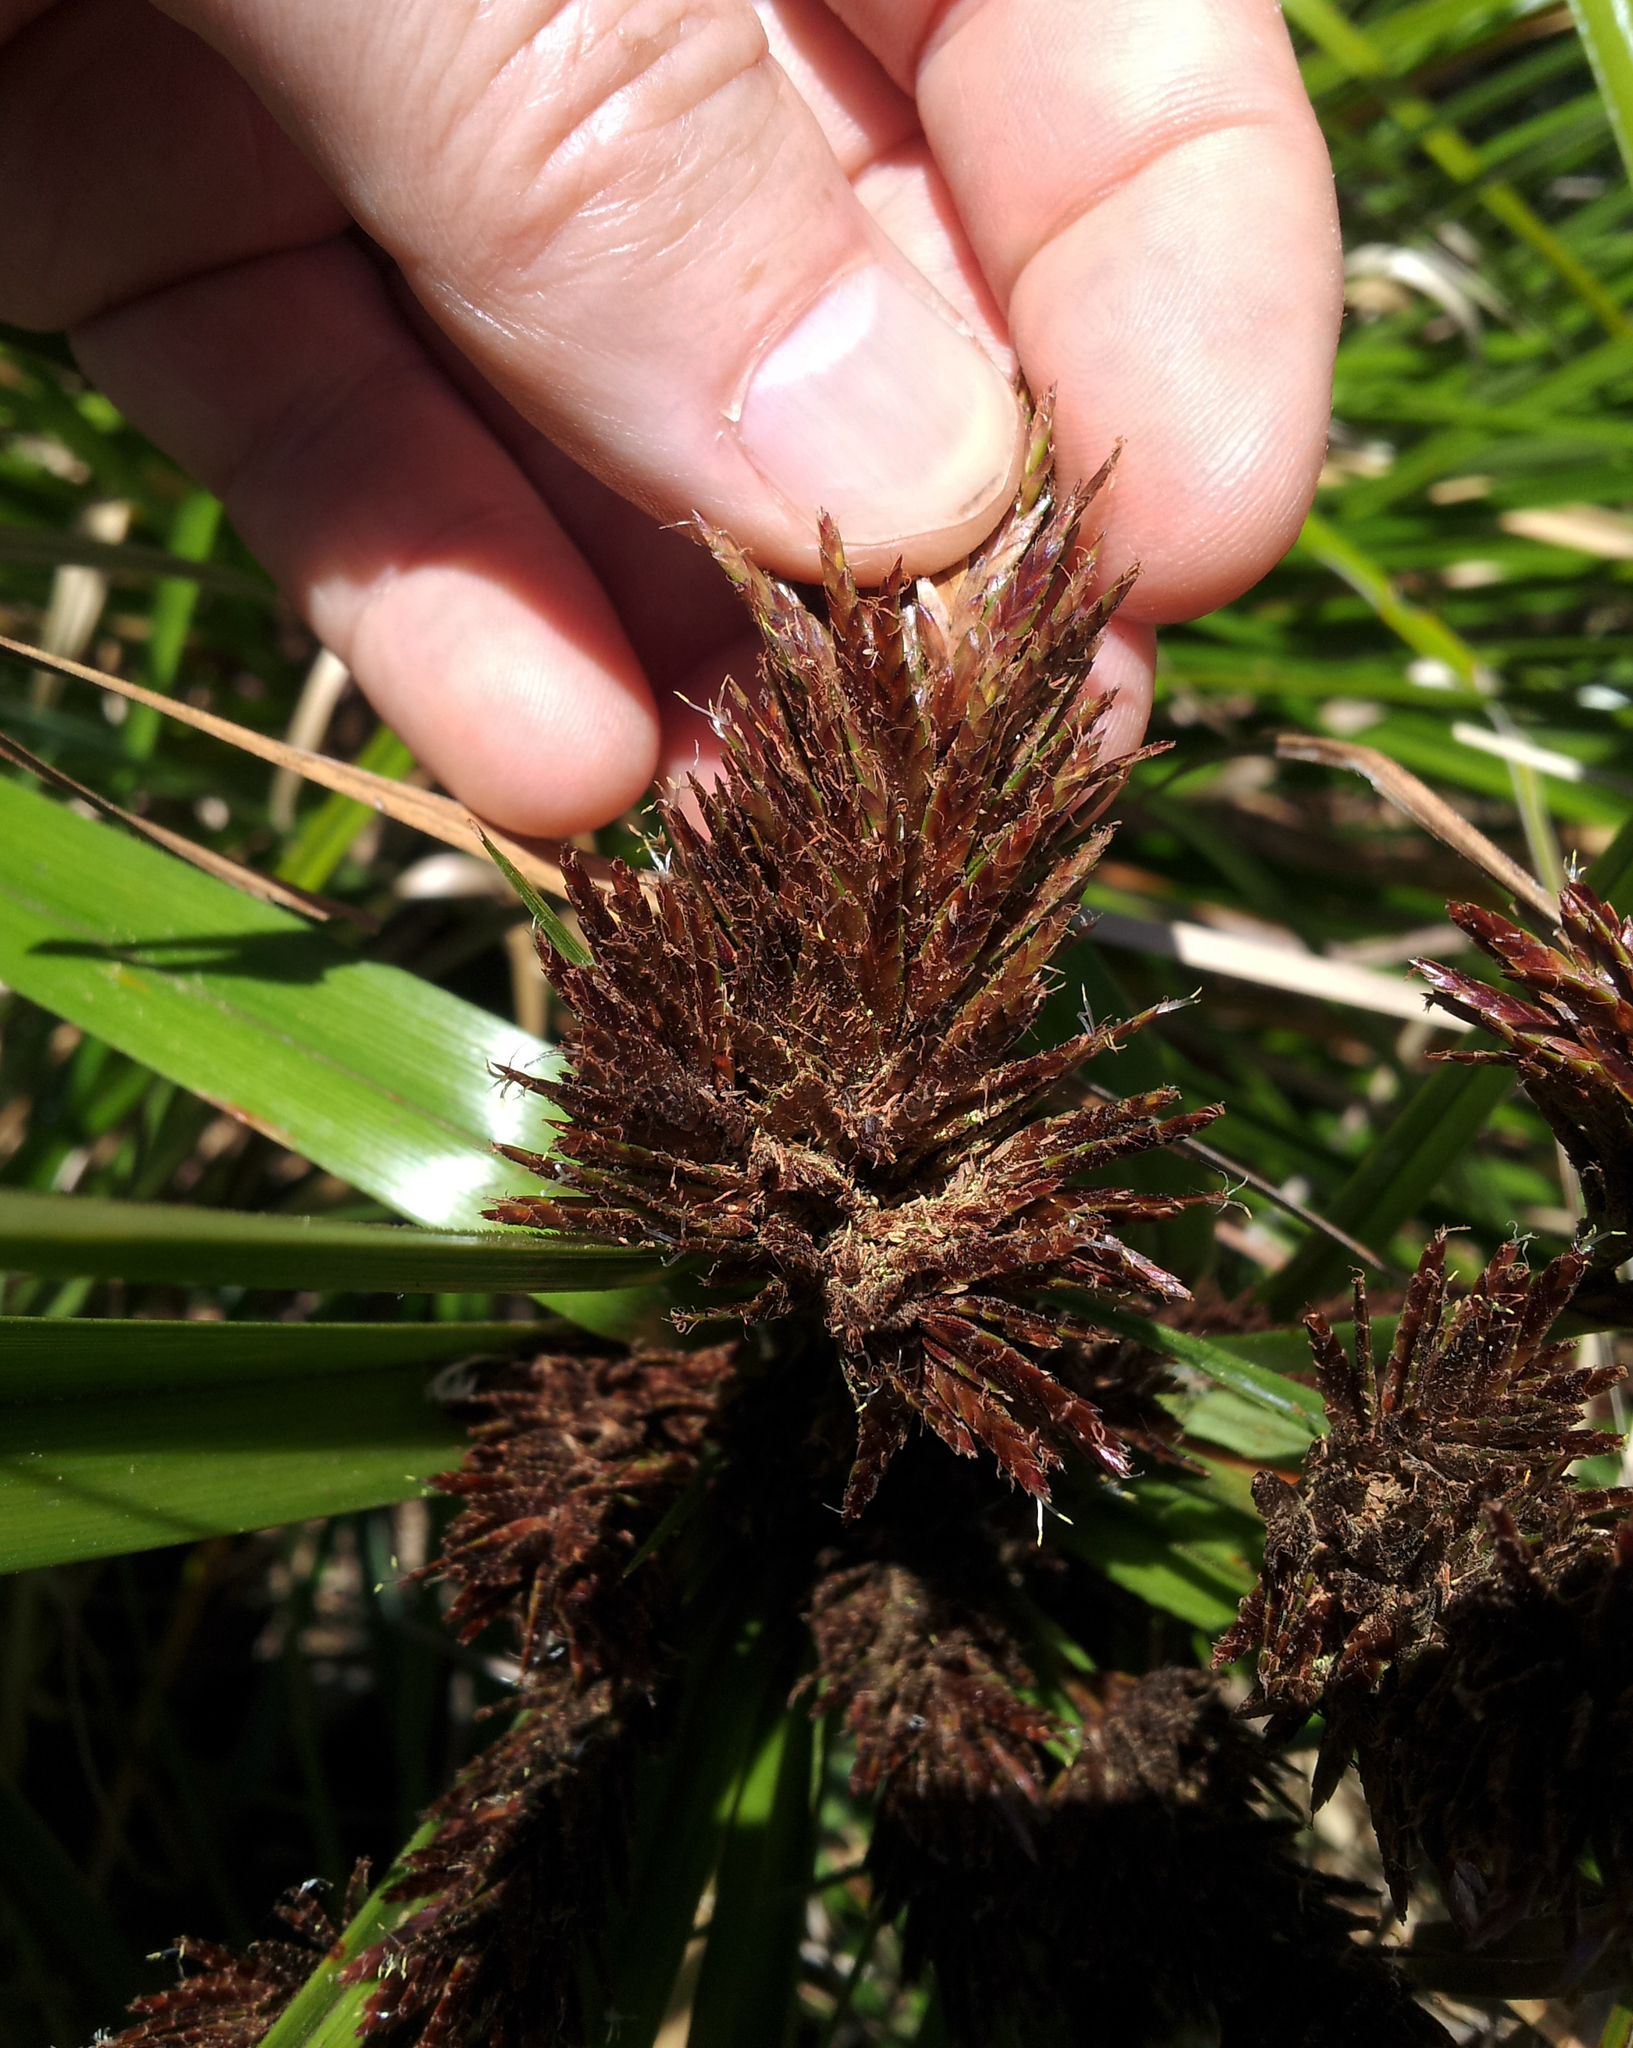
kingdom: Fungi
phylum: Basidiomycota
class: Microbotryomycetes
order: Microbotryales
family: Microbotryaceae
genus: Bauerago
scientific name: Bauerago gardneri
